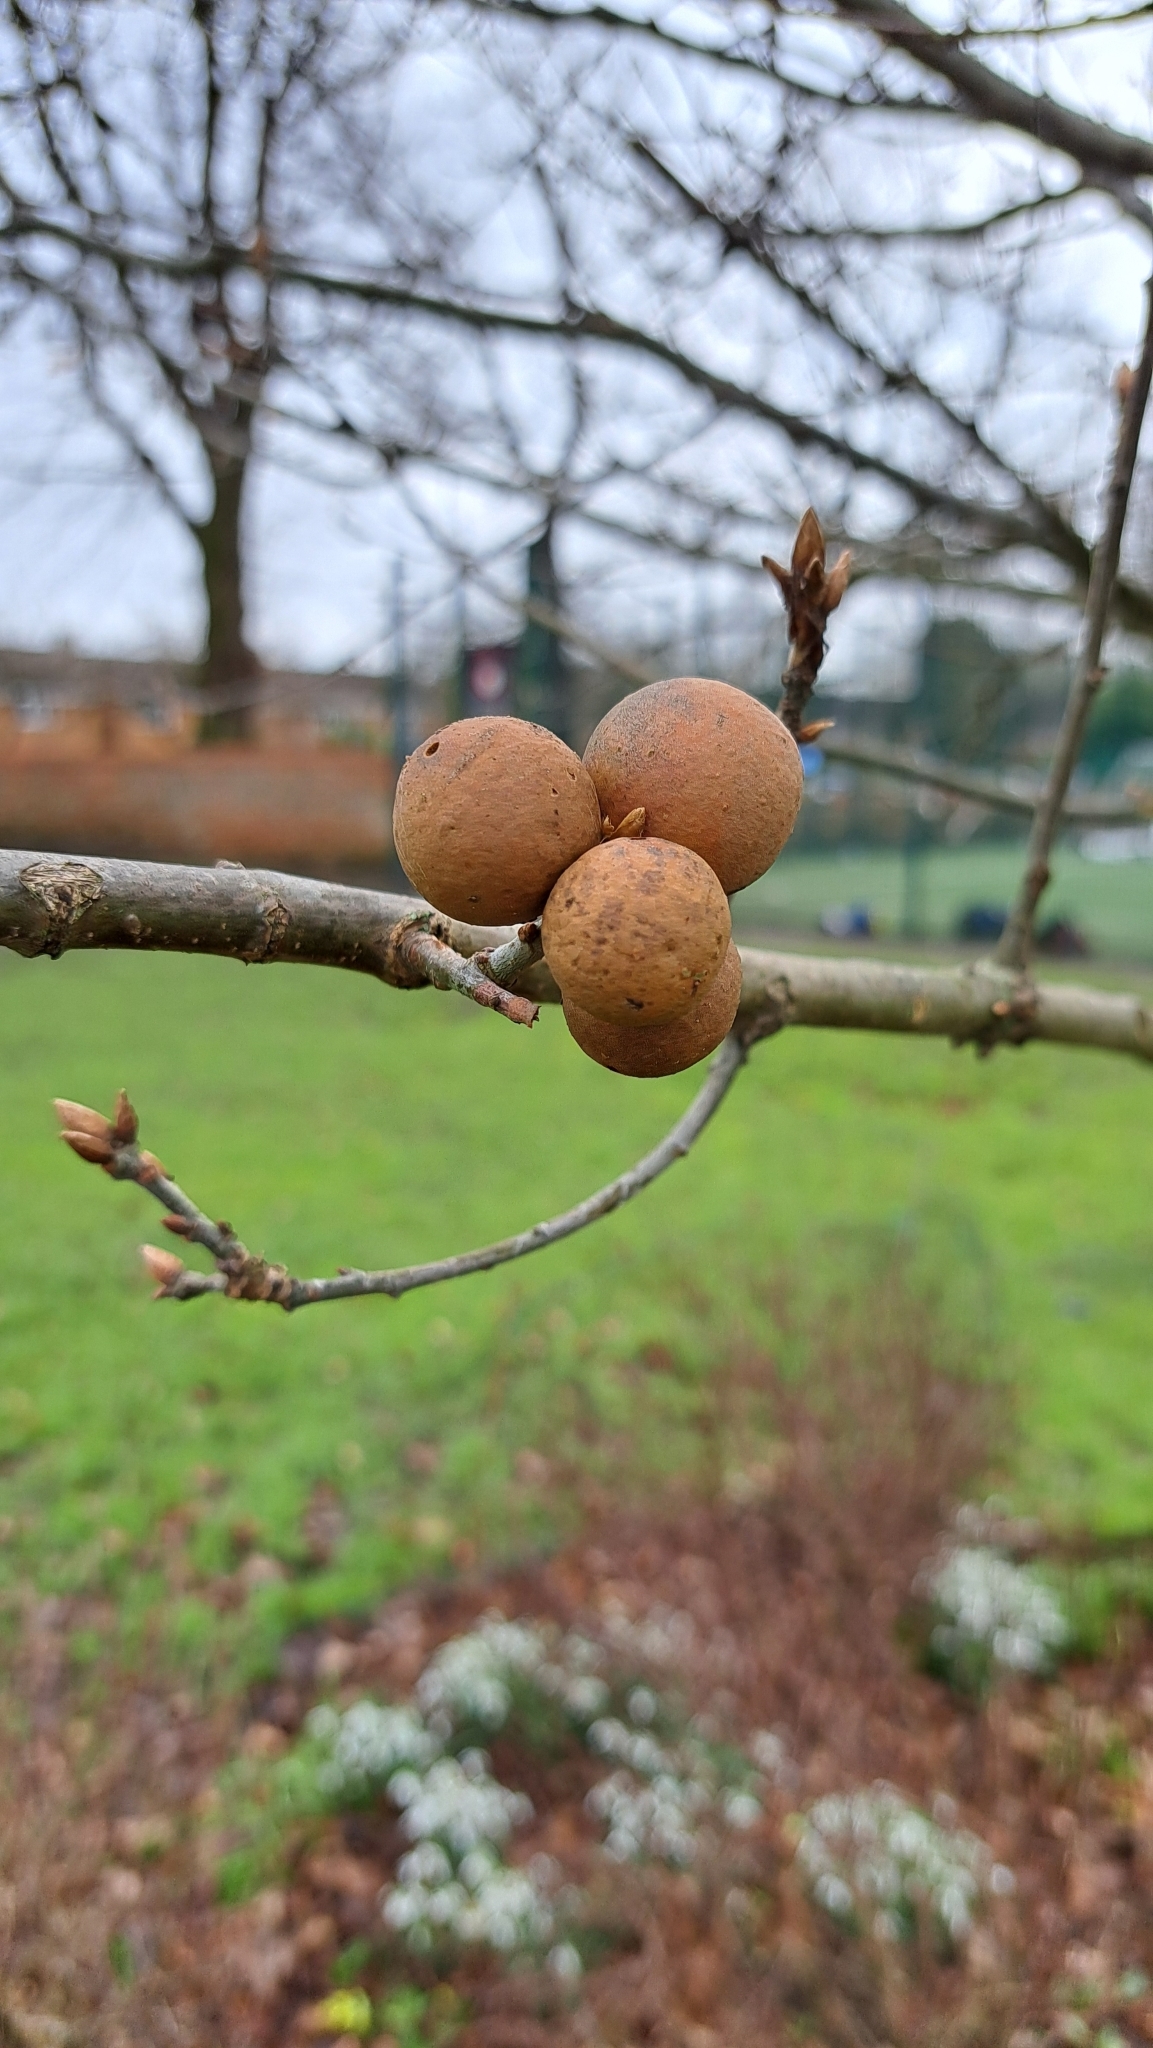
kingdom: Animalia
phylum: Arthropoda
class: Insecta
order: Hymenoptera
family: Cynipidae
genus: Andricus
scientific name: Andricus kollari
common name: Marble gall
